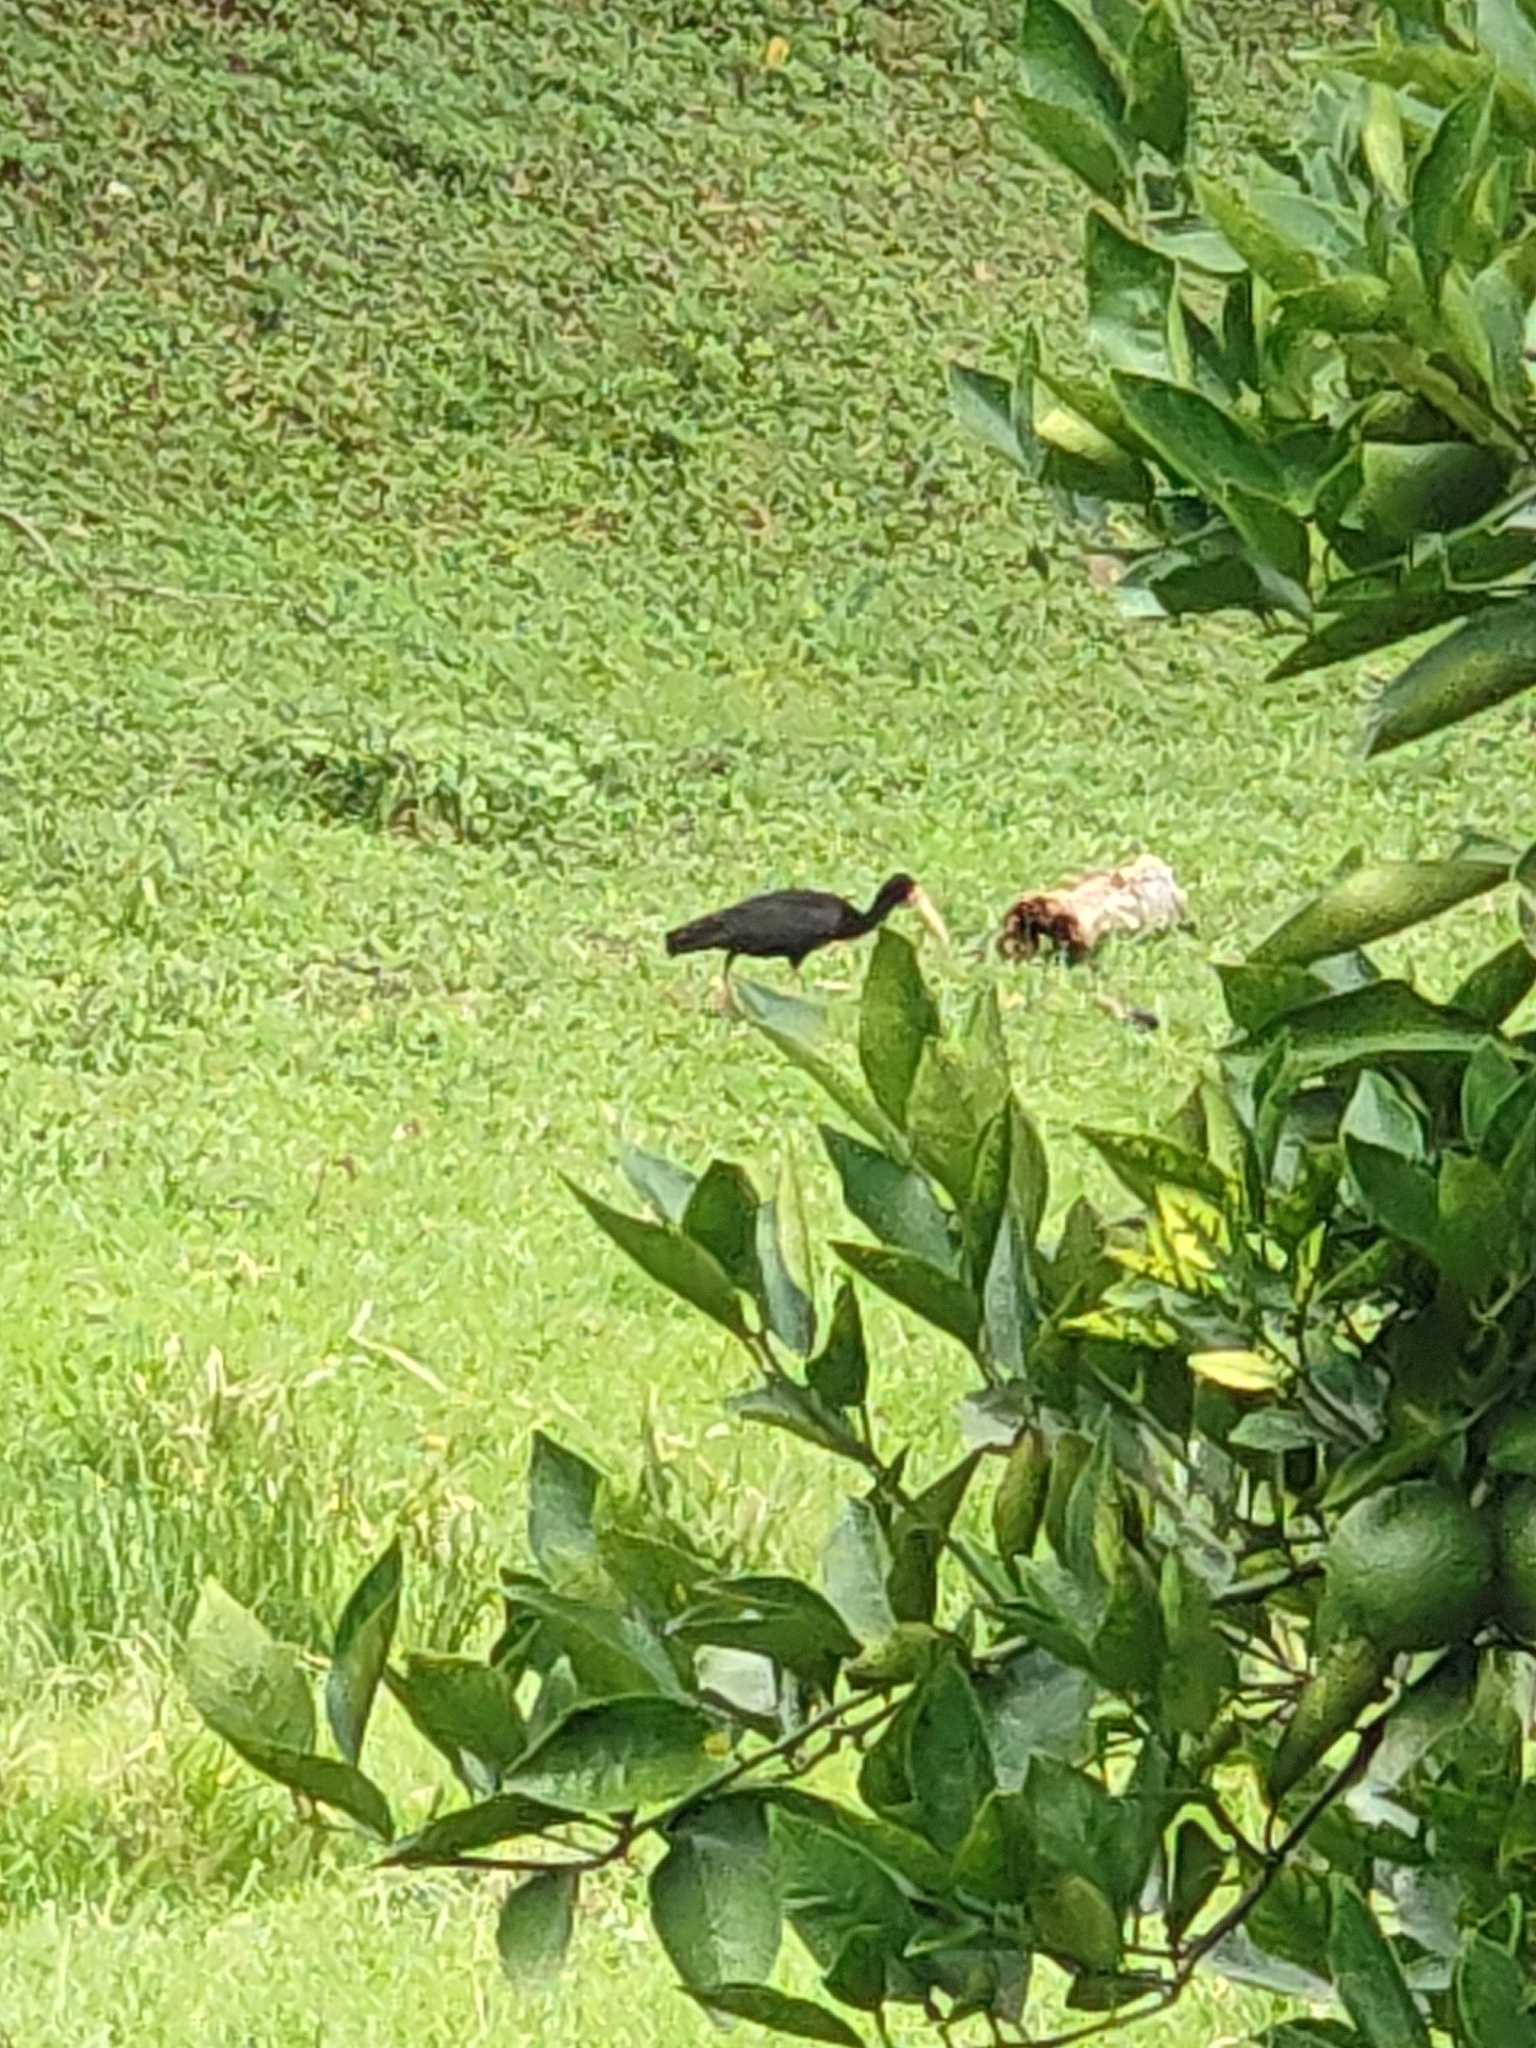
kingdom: Animalia
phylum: Chordata
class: Aves
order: Pelecaniformes
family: Threskiornithidae
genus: Phimosus
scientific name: Phimosus infuscatus
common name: Bare-faced ibis
